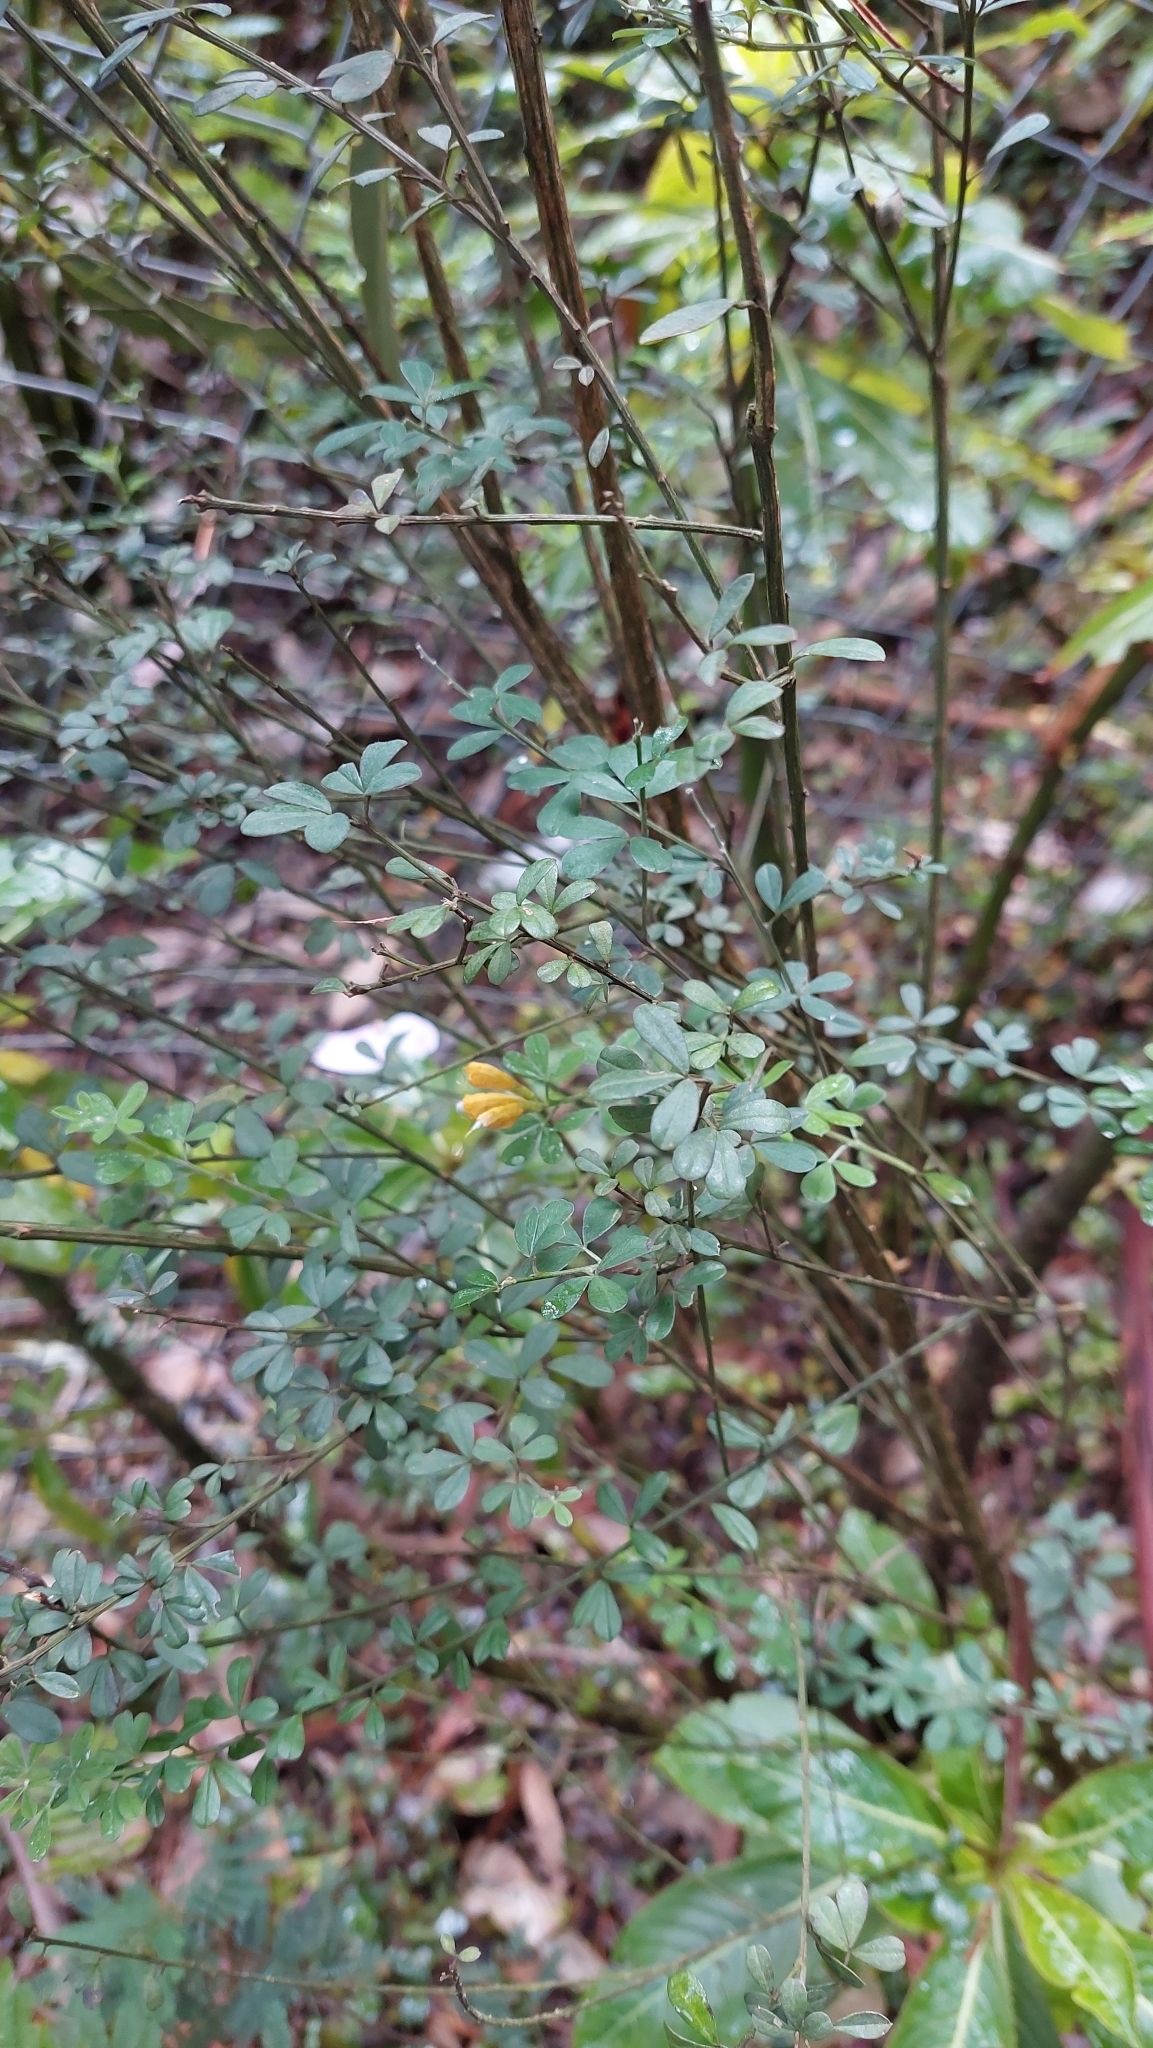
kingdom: Plantae
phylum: Tracheophyta
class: Magnoliopsida
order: Fabales
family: Fabaceae
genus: Genista
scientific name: Genista monspessulana
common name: Montpellier broom
